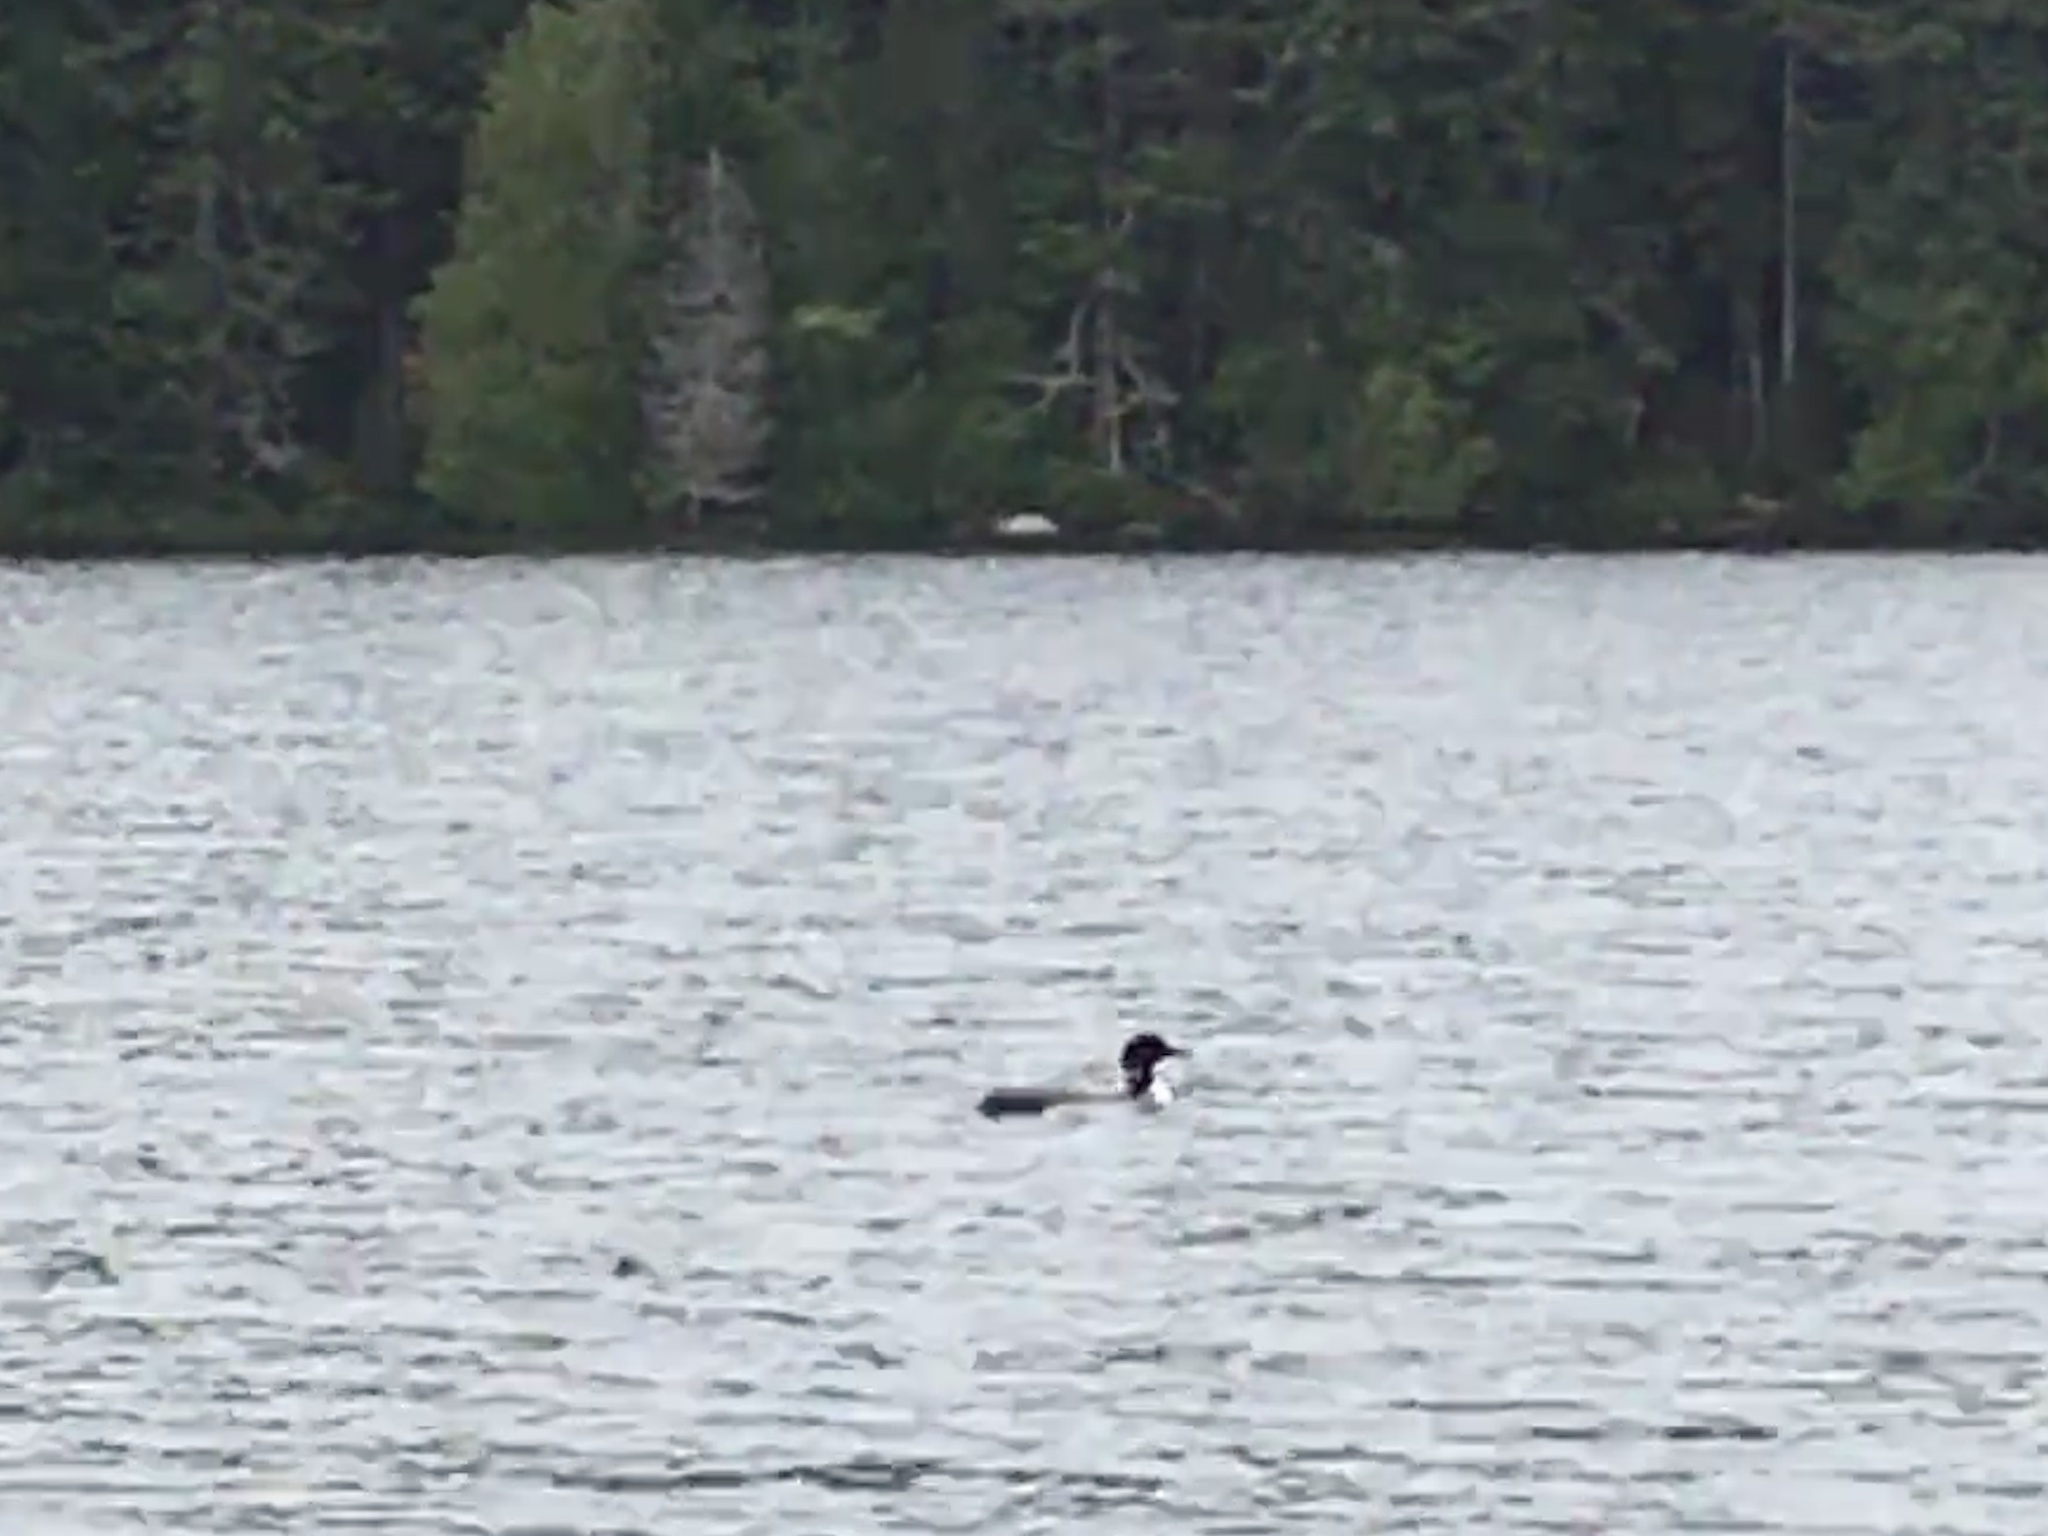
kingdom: Animalia
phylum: Chordata
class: Aves
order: Gaviiformes
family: Gaviidae
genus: Gavia
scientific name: Gavia immer
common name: Common loon
